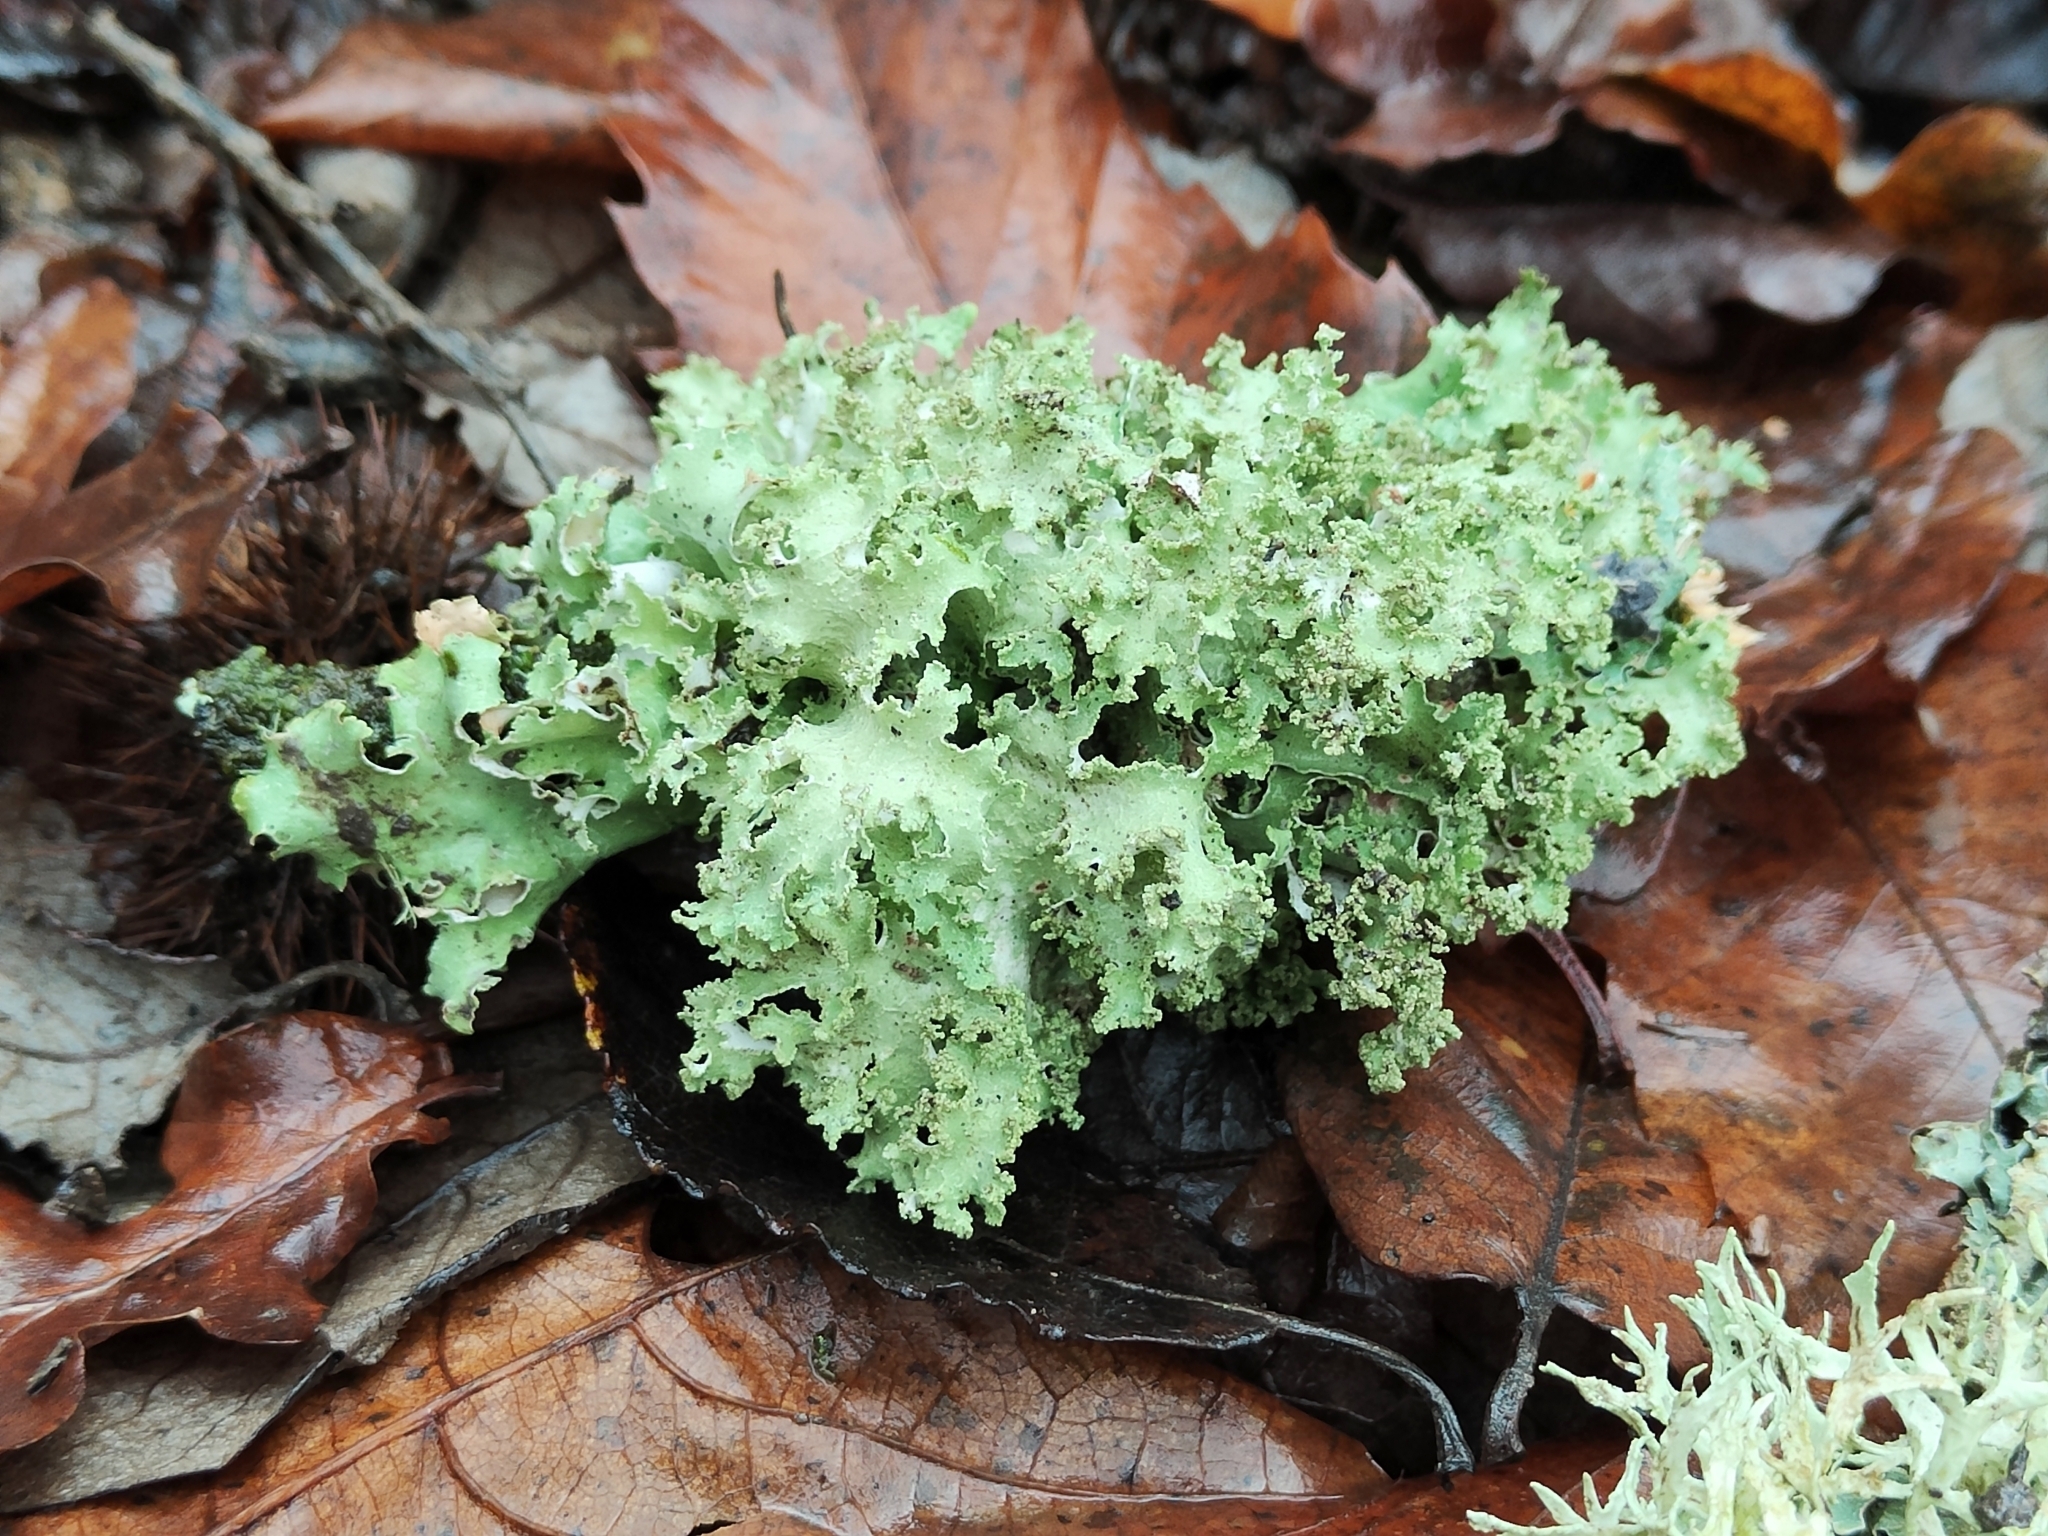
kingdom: Fungi
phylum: Ascomycota
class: Lecanoromycetes
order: Lecanorales
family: Parmeliaceae
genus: Platismatia
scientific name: Platismatia glauca
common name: Varied rag lichen
